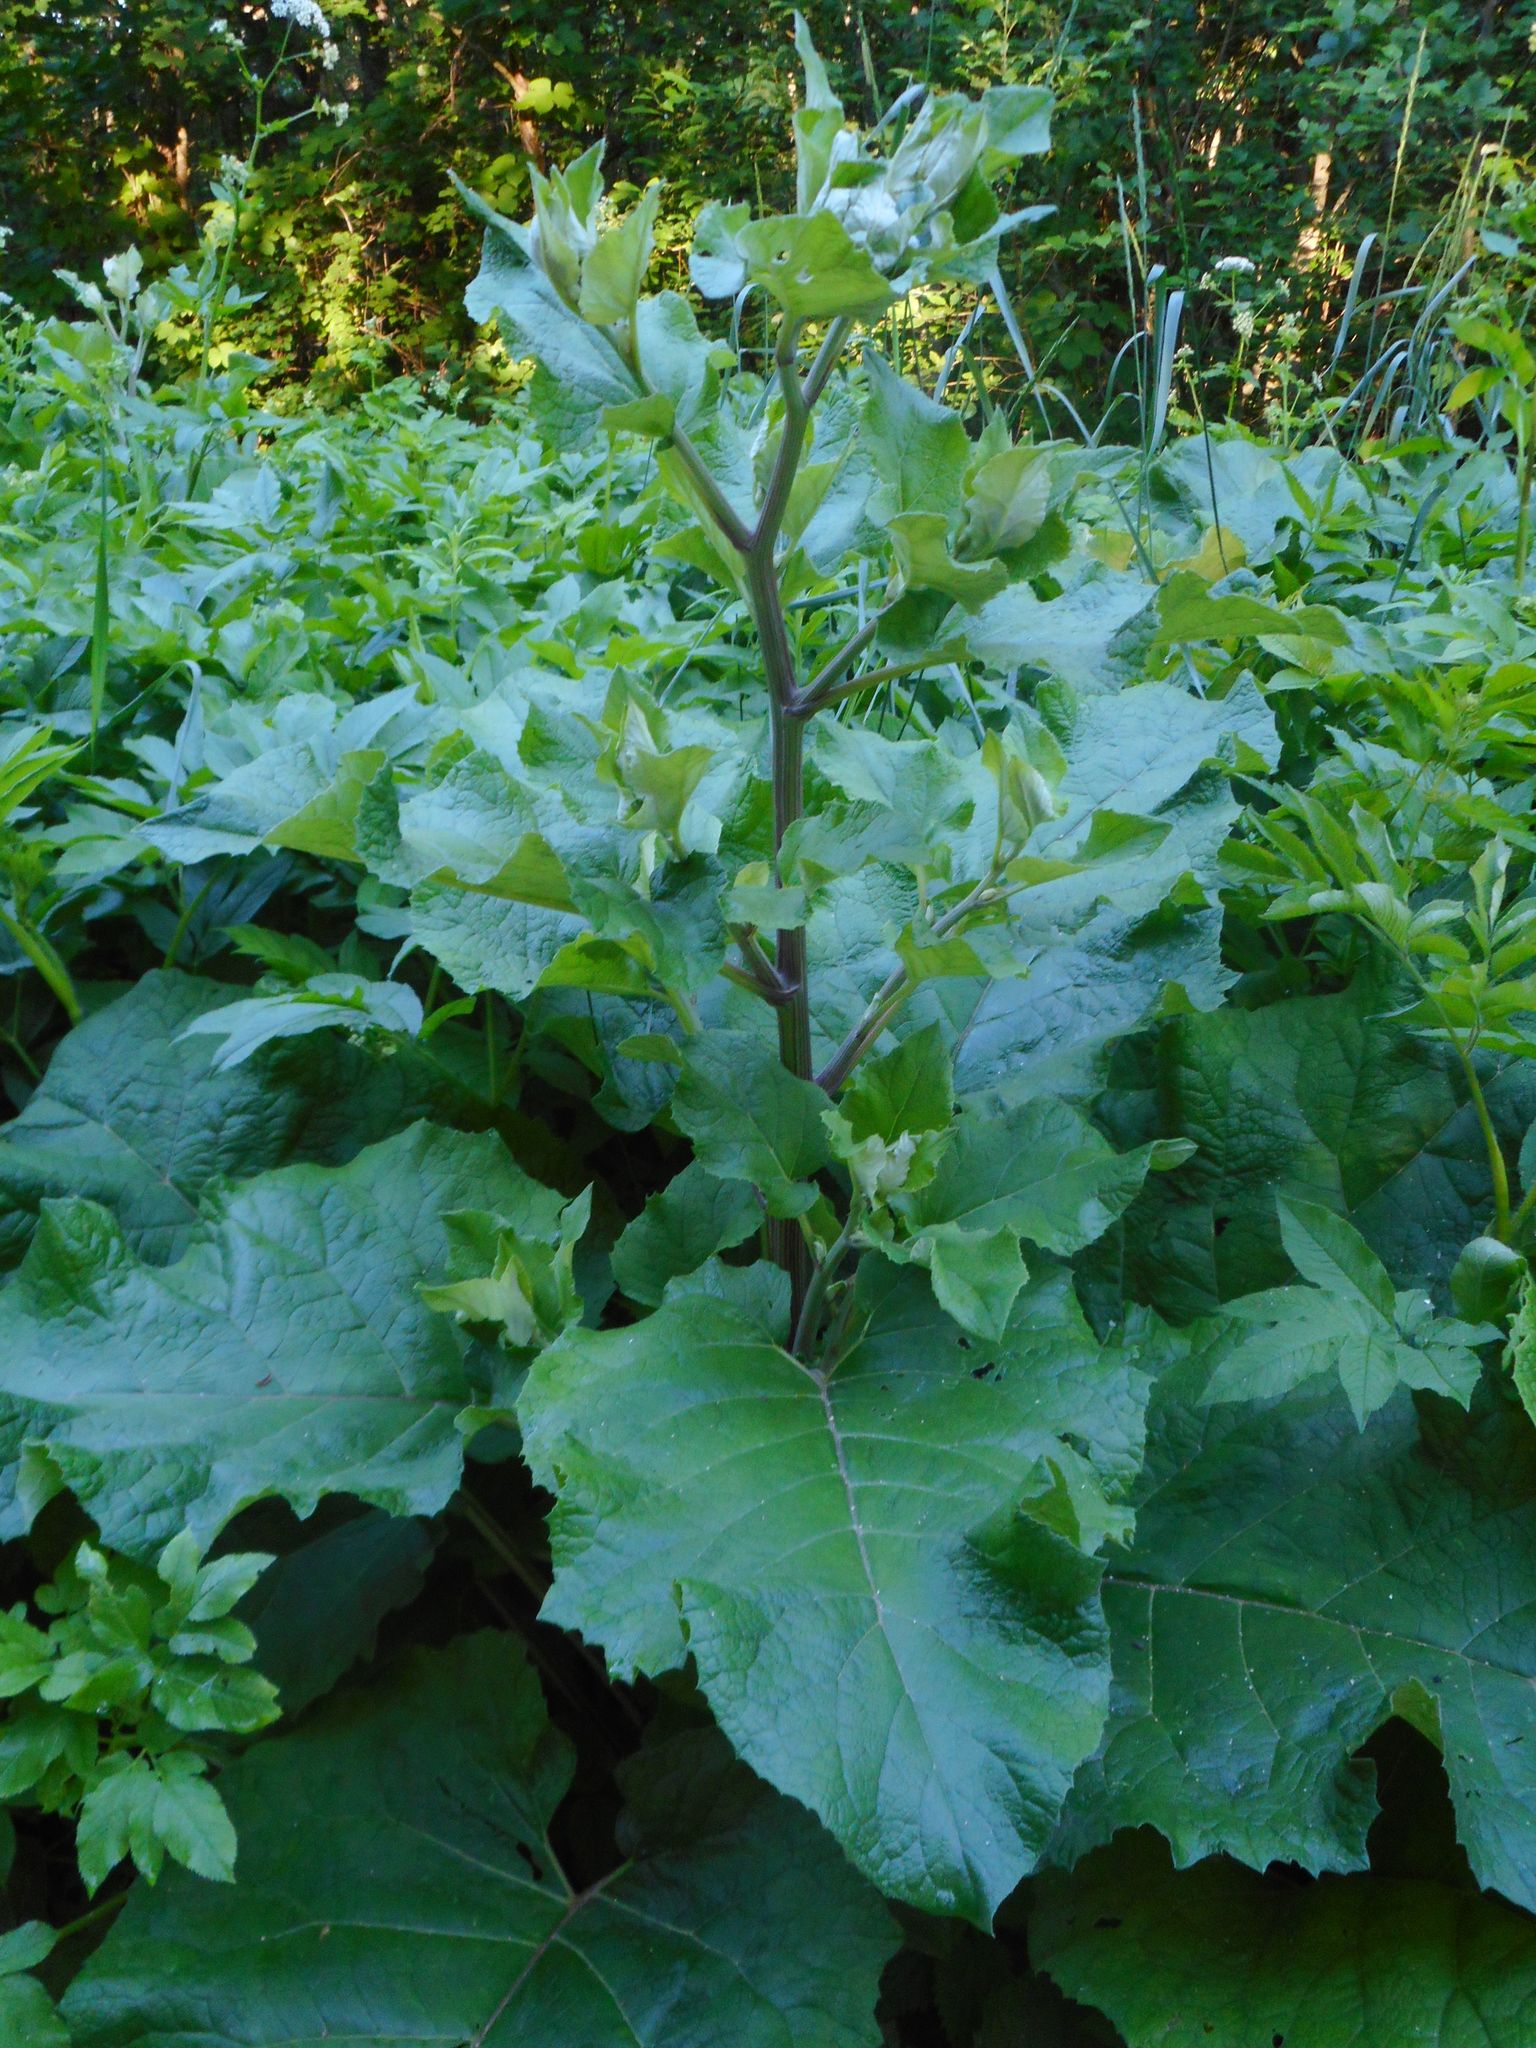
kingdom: Plantae
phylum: Tracheophyta
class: Magnoliopsida
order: Asterales
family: Asteraceae
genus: Arctium
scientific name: Arctium tomentosum
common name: Woolly burdock
